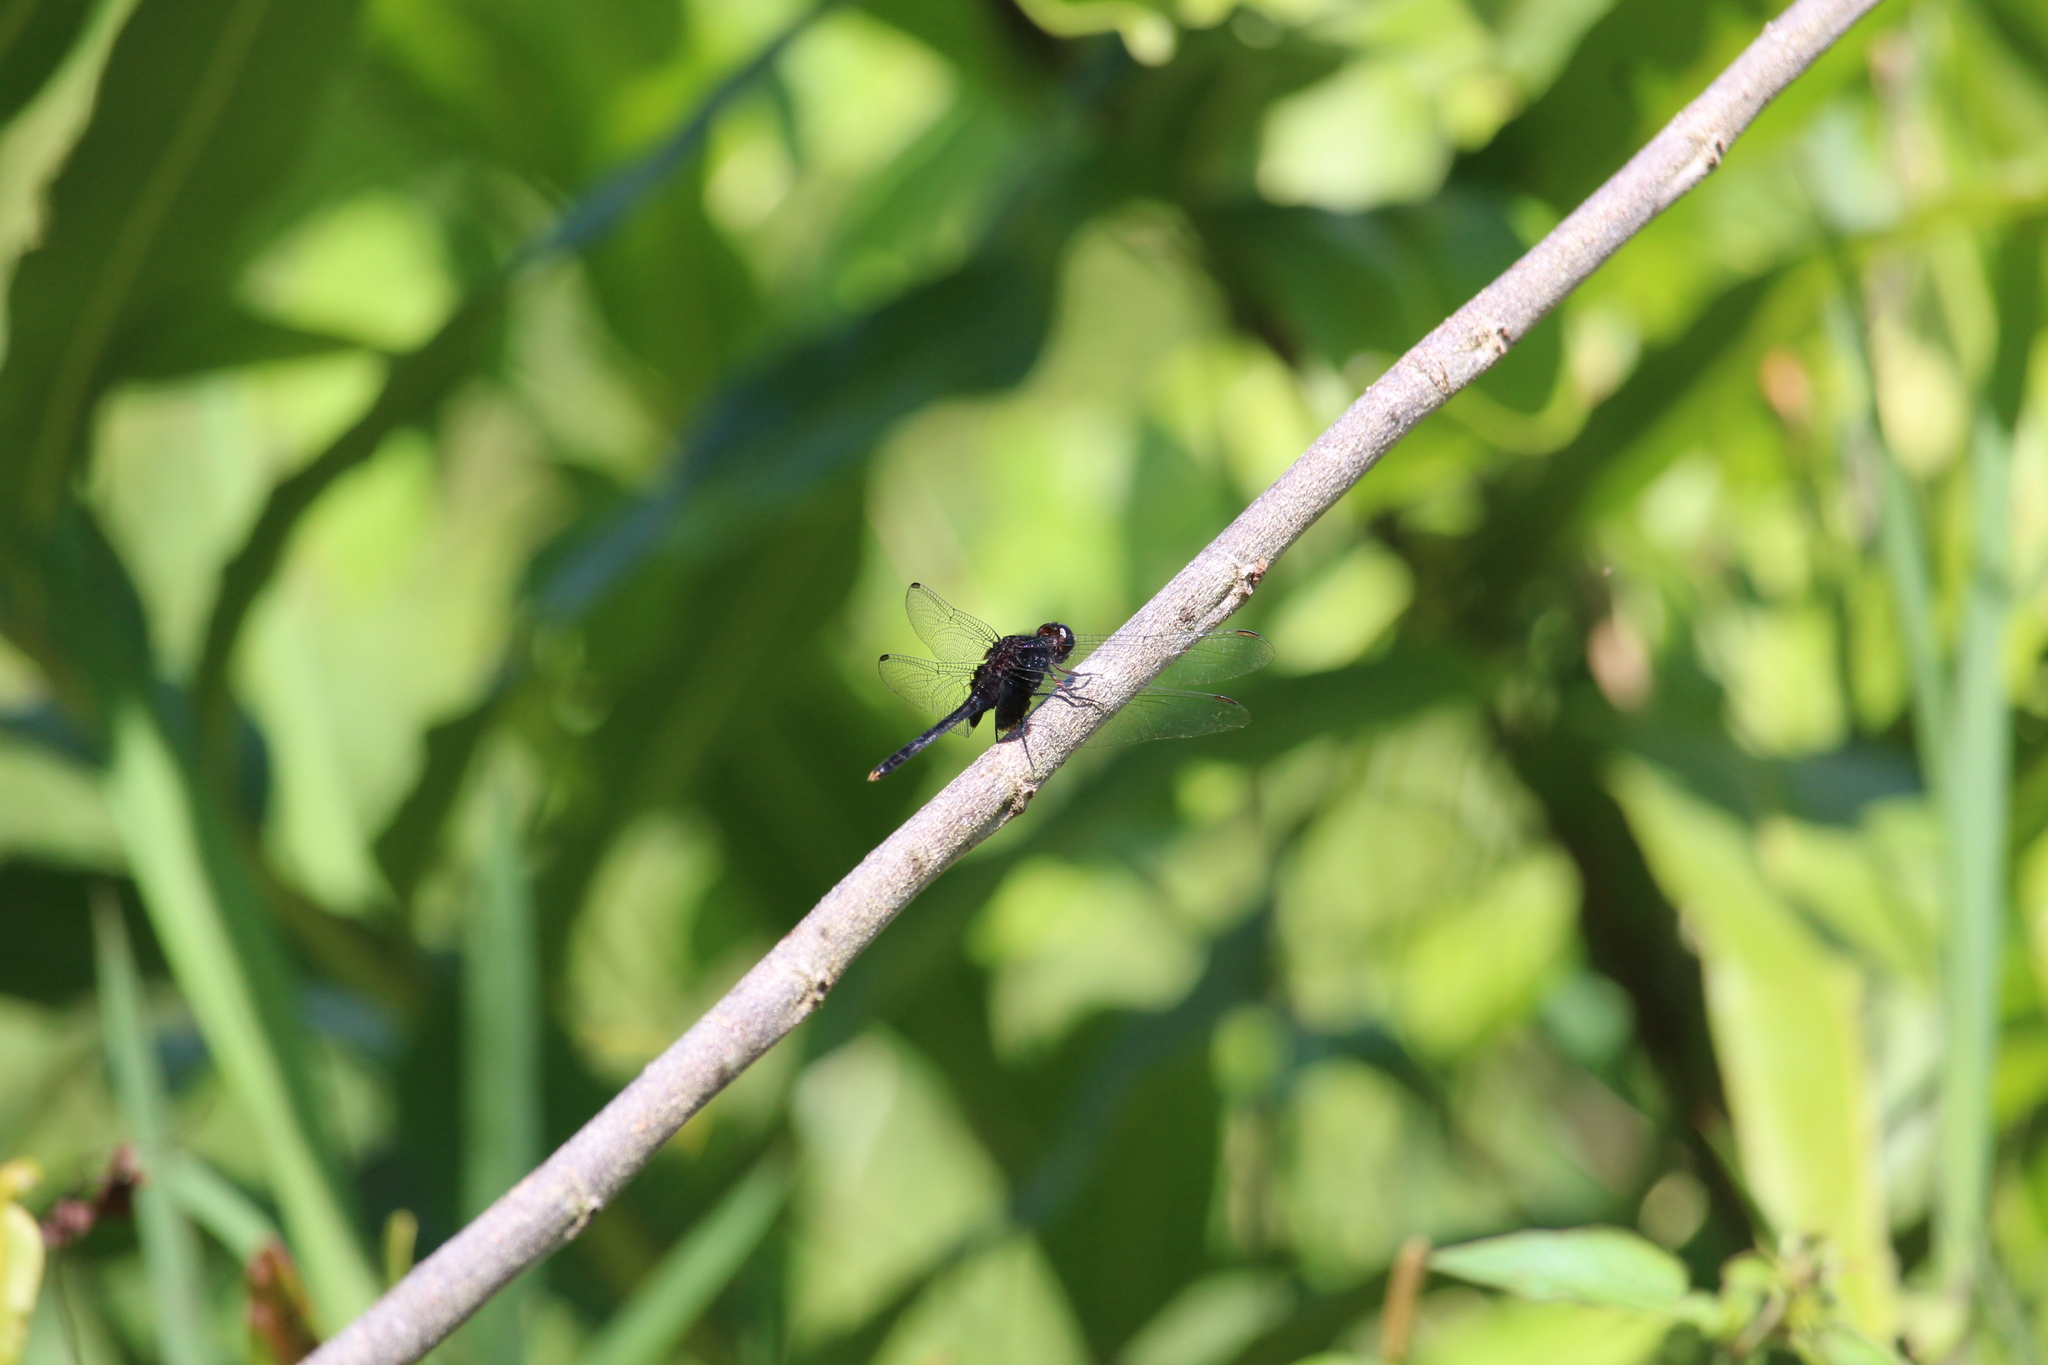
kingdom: Animalia
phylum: Arthropoda
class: Insecta
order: Odonata
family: Libellulidae
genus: Erythemis
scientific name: Erythemis attala
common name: Black pondhawk
